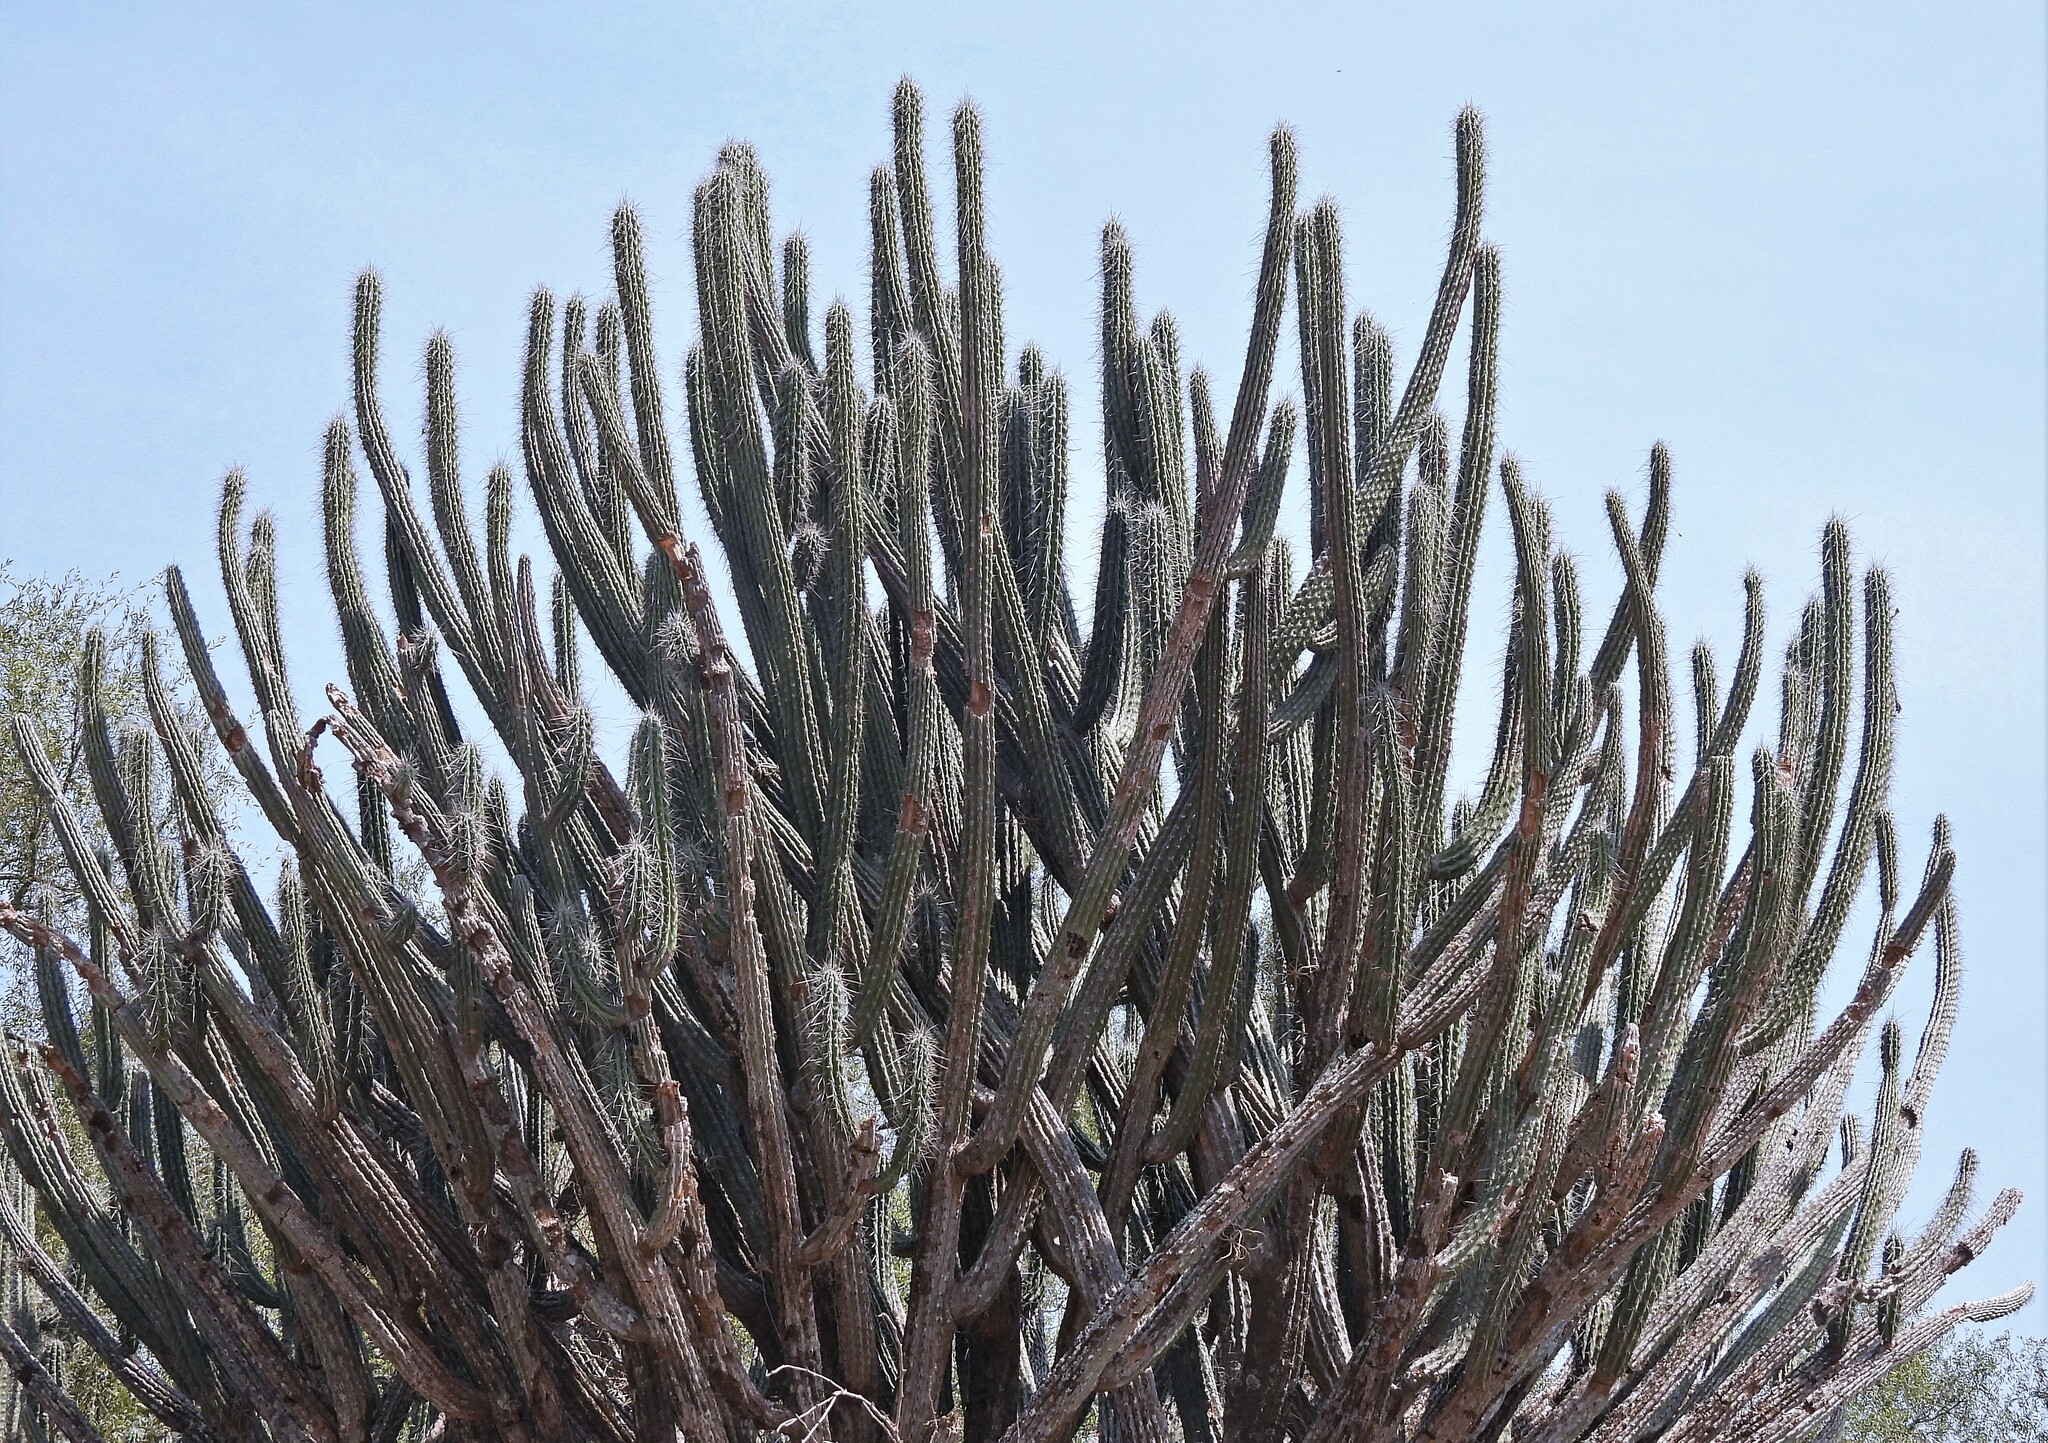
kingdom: Plantae
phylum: Tracheophyta
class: Magnoliopsida
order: Caryophyllales
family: Cactaceae
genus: Stetsonia
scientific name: Stetsonia coryne
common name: Toothpick cactus
